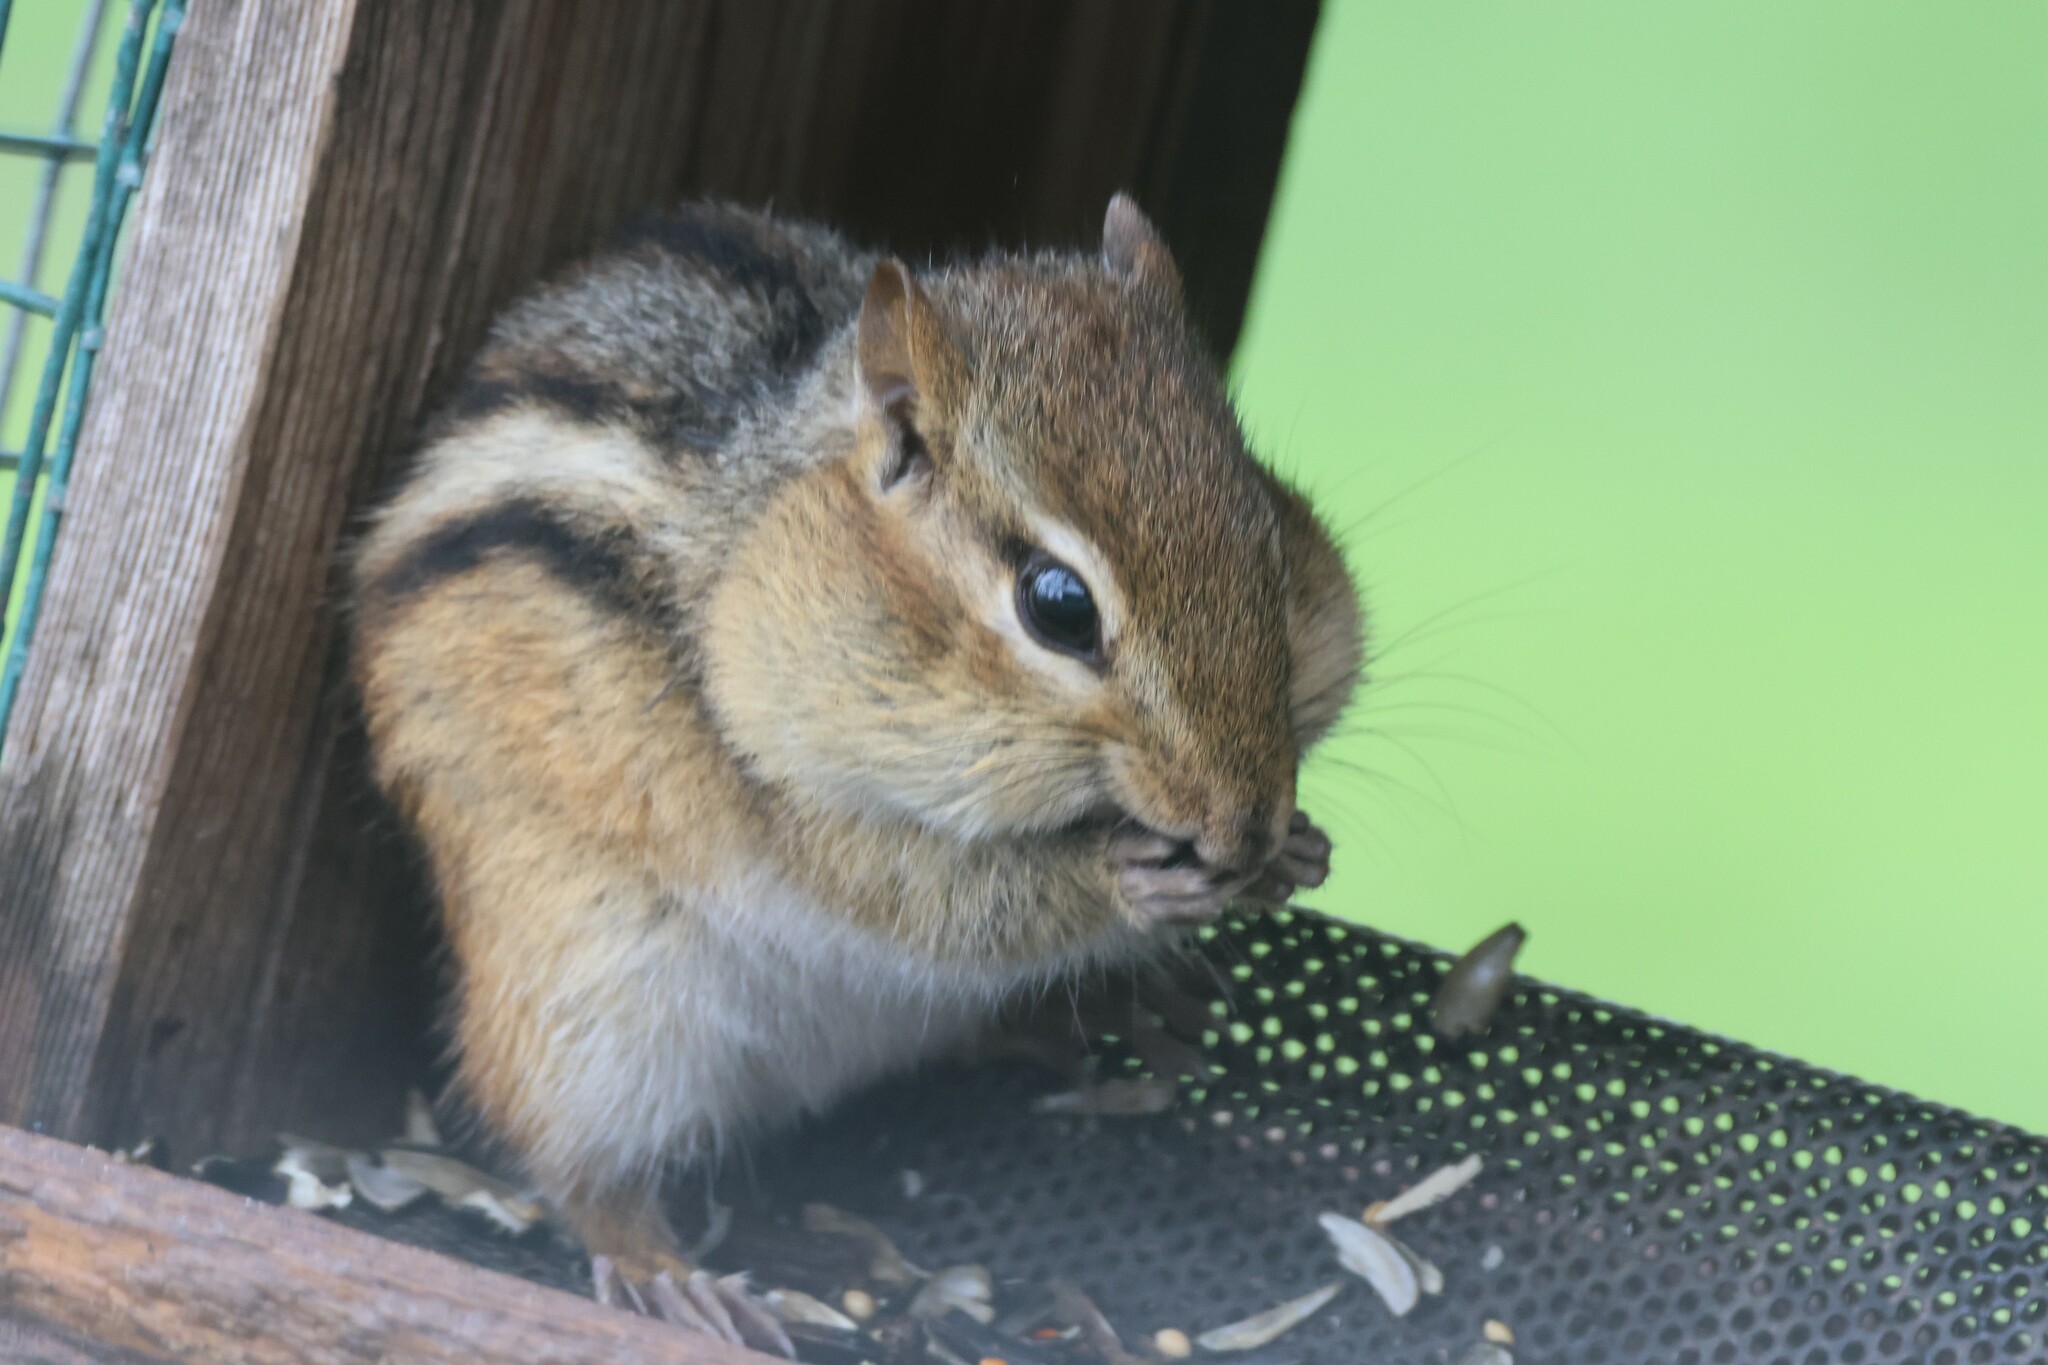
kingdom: Animalia
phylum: Chordata
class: Mammalia
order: Rodentia
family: Sciuridae
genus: Tamias
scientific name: Tamias striatus
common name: Eastern chipmunk
